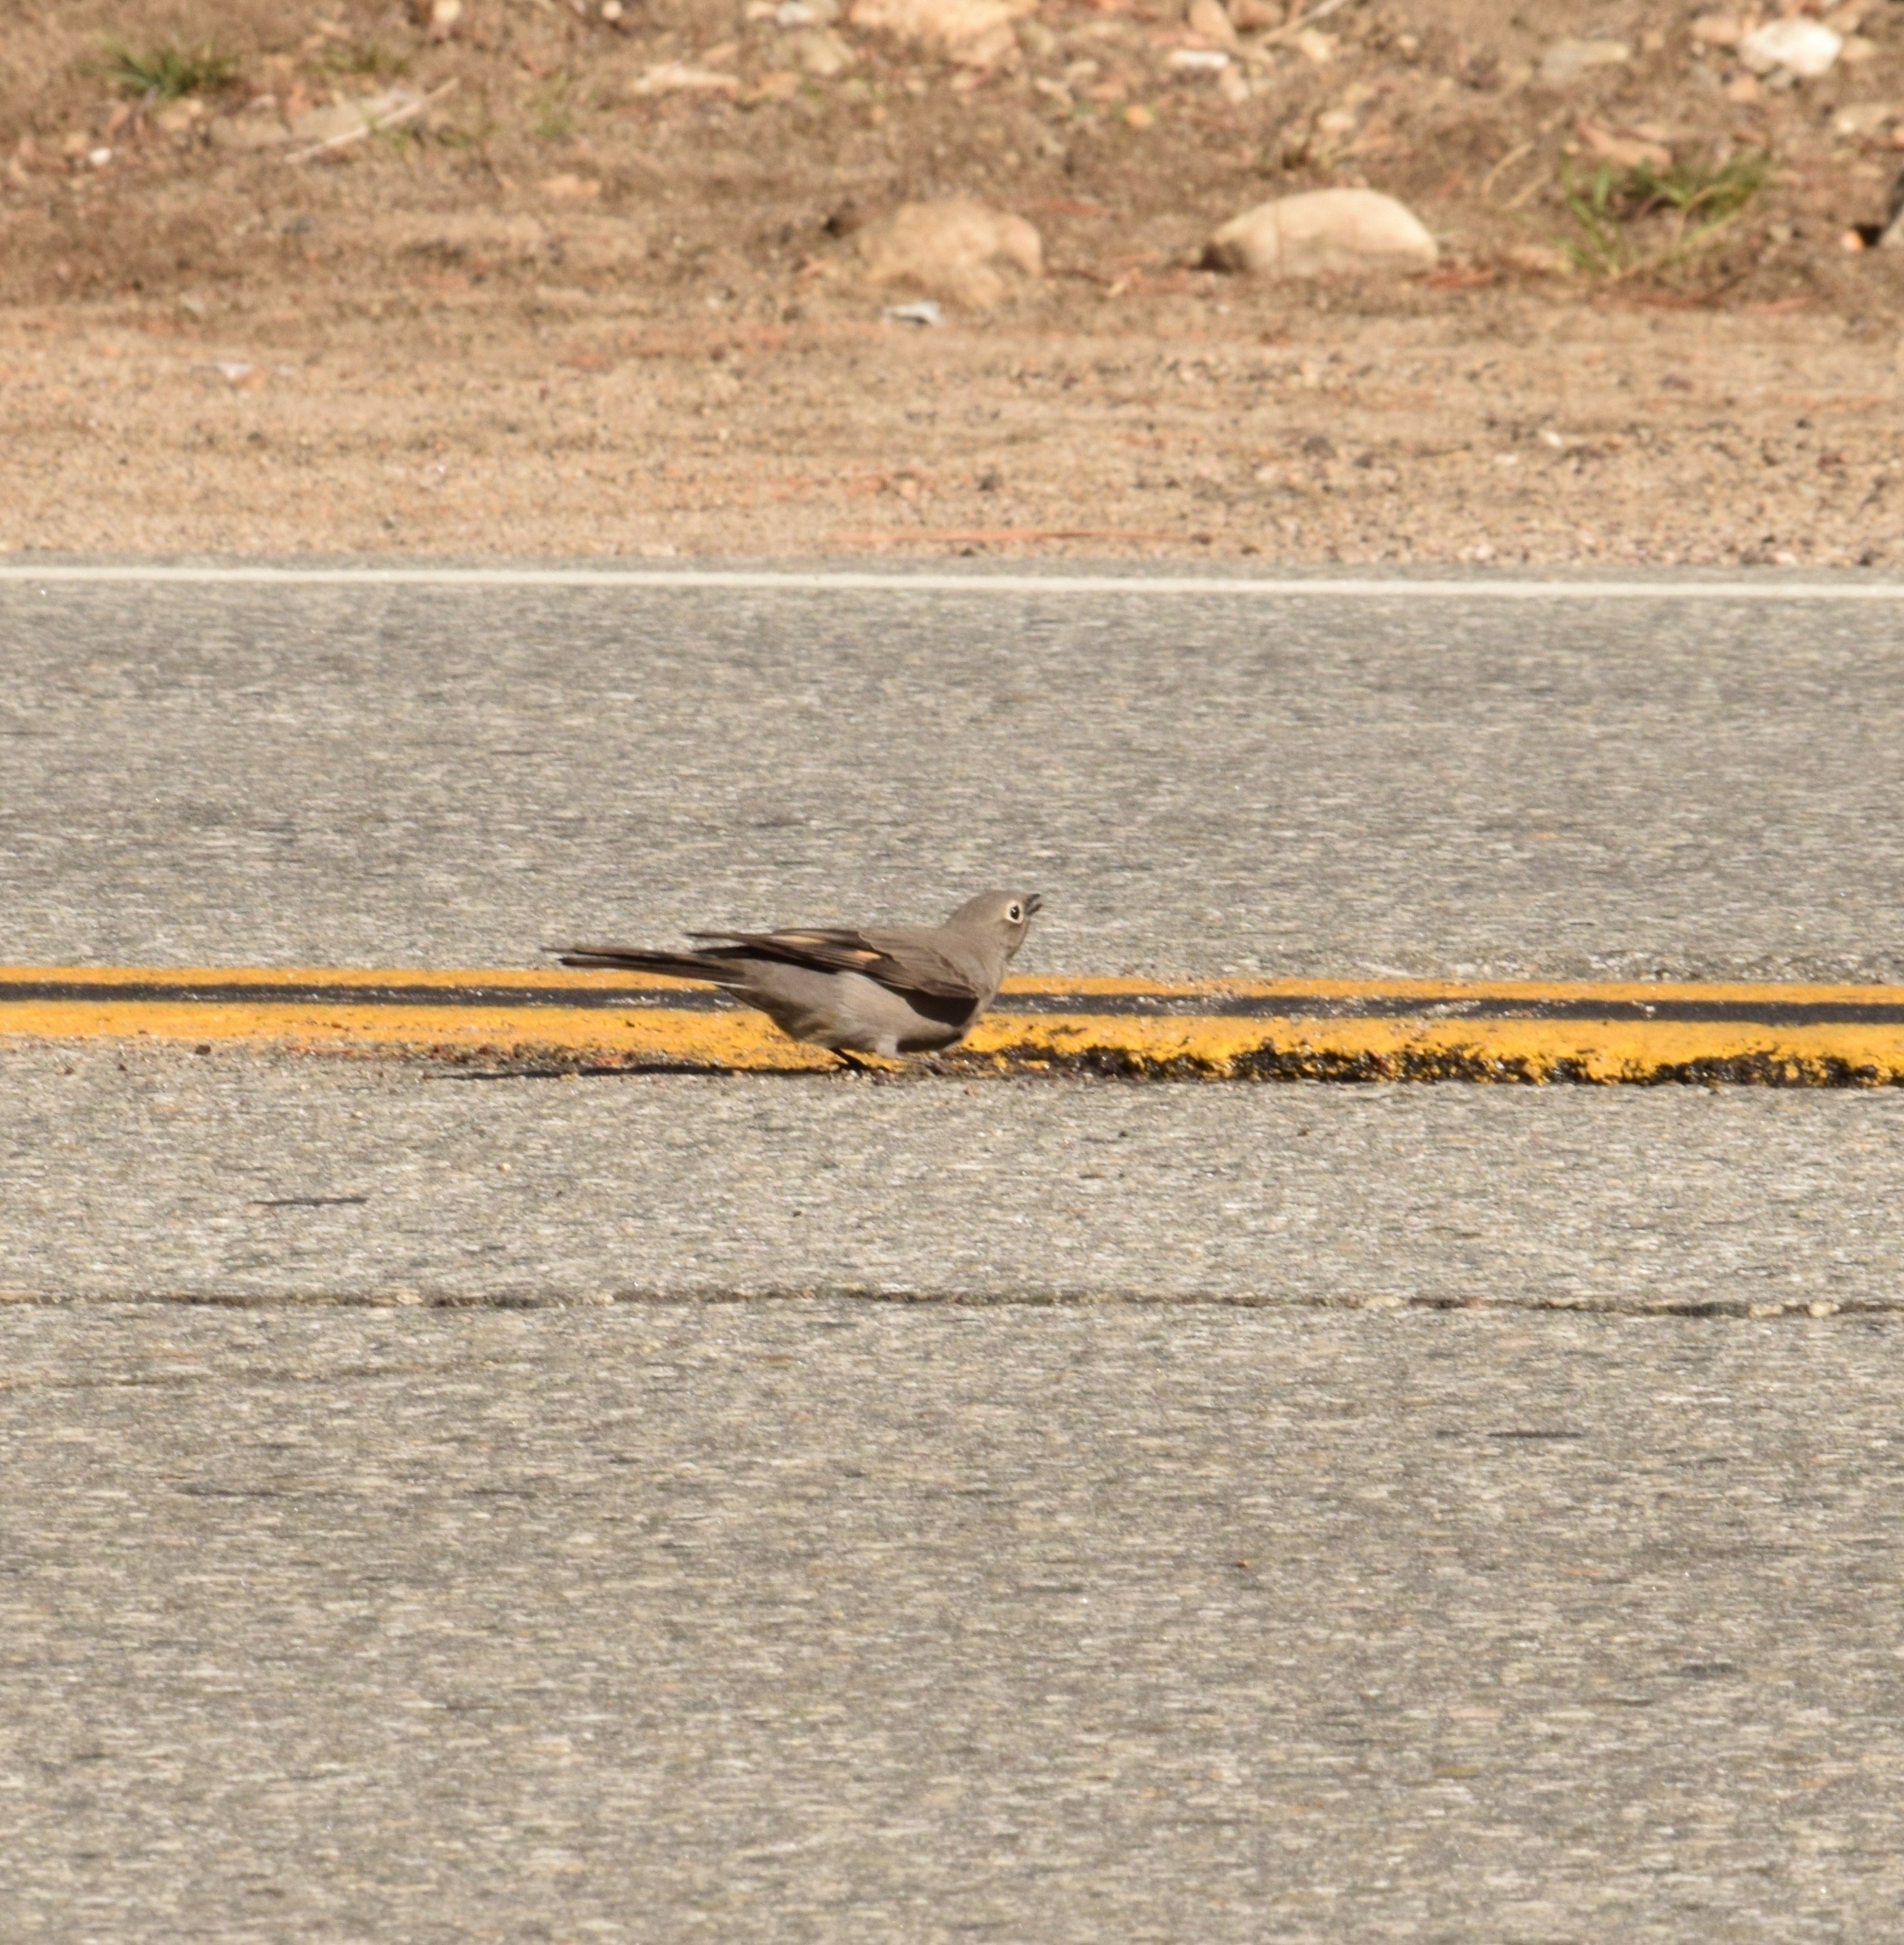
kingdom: Animalia
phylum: Chordata
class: Aves
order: Passeriformes
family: Turdidae
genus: Myadestes
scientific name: Myadestes townsendi
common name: Townsend's solitaire
